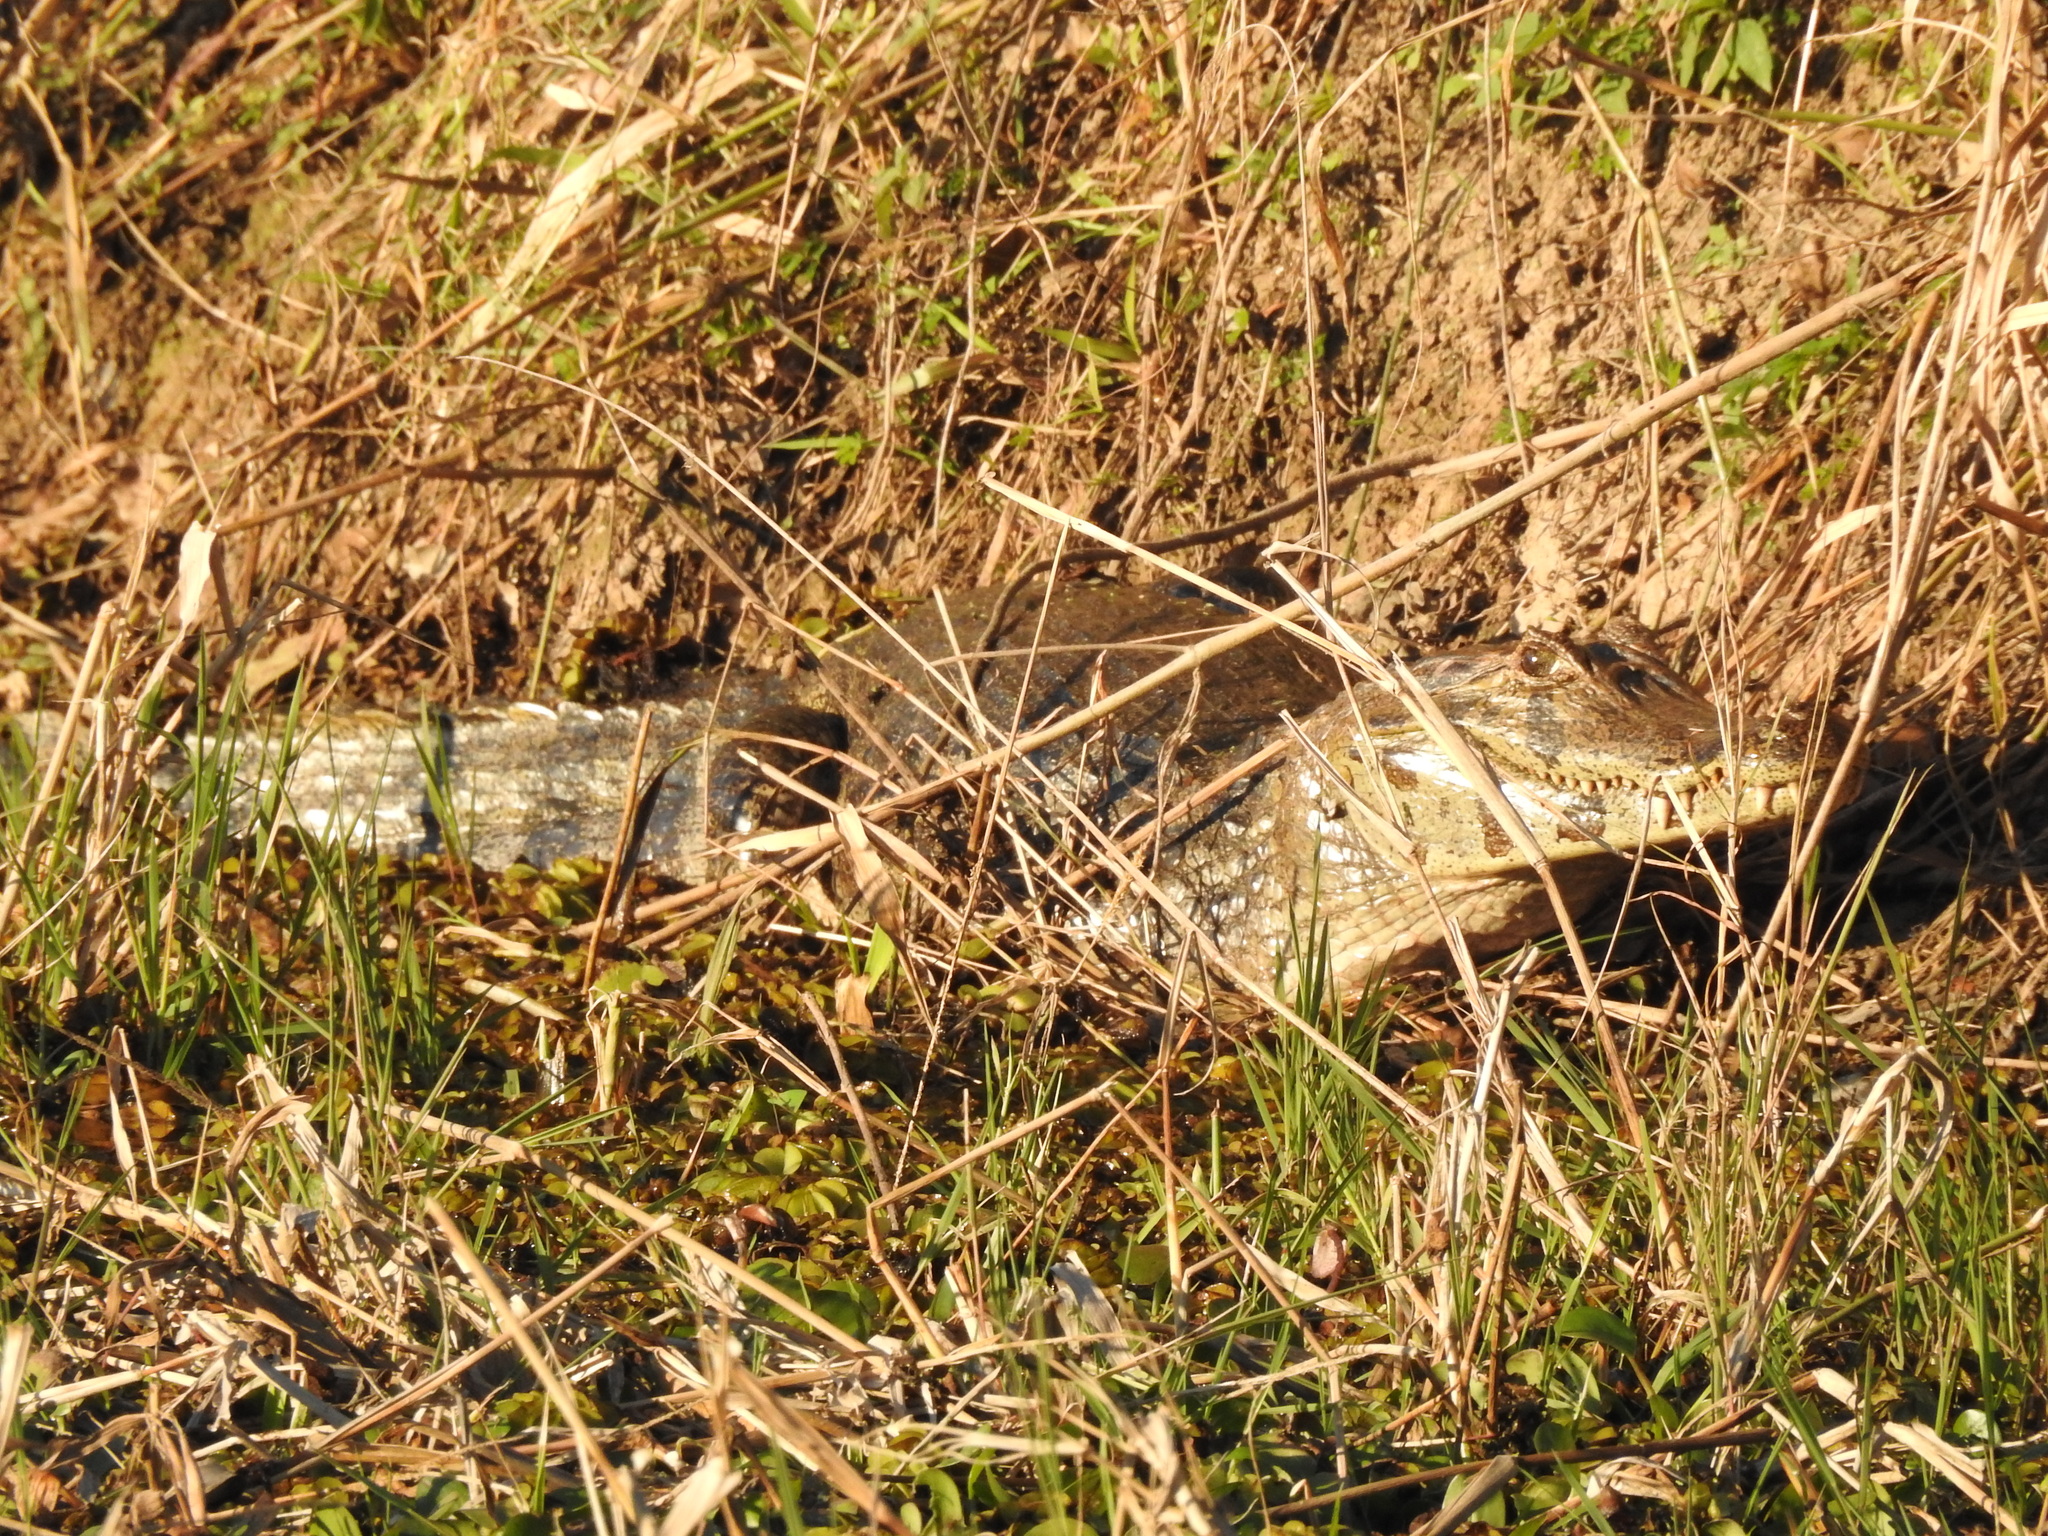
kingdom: Animalia
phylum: Chordata
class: Crocodylia
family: Alligatoridae
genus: Caiman
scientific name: Caiman yacare
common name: Yacare caiman
